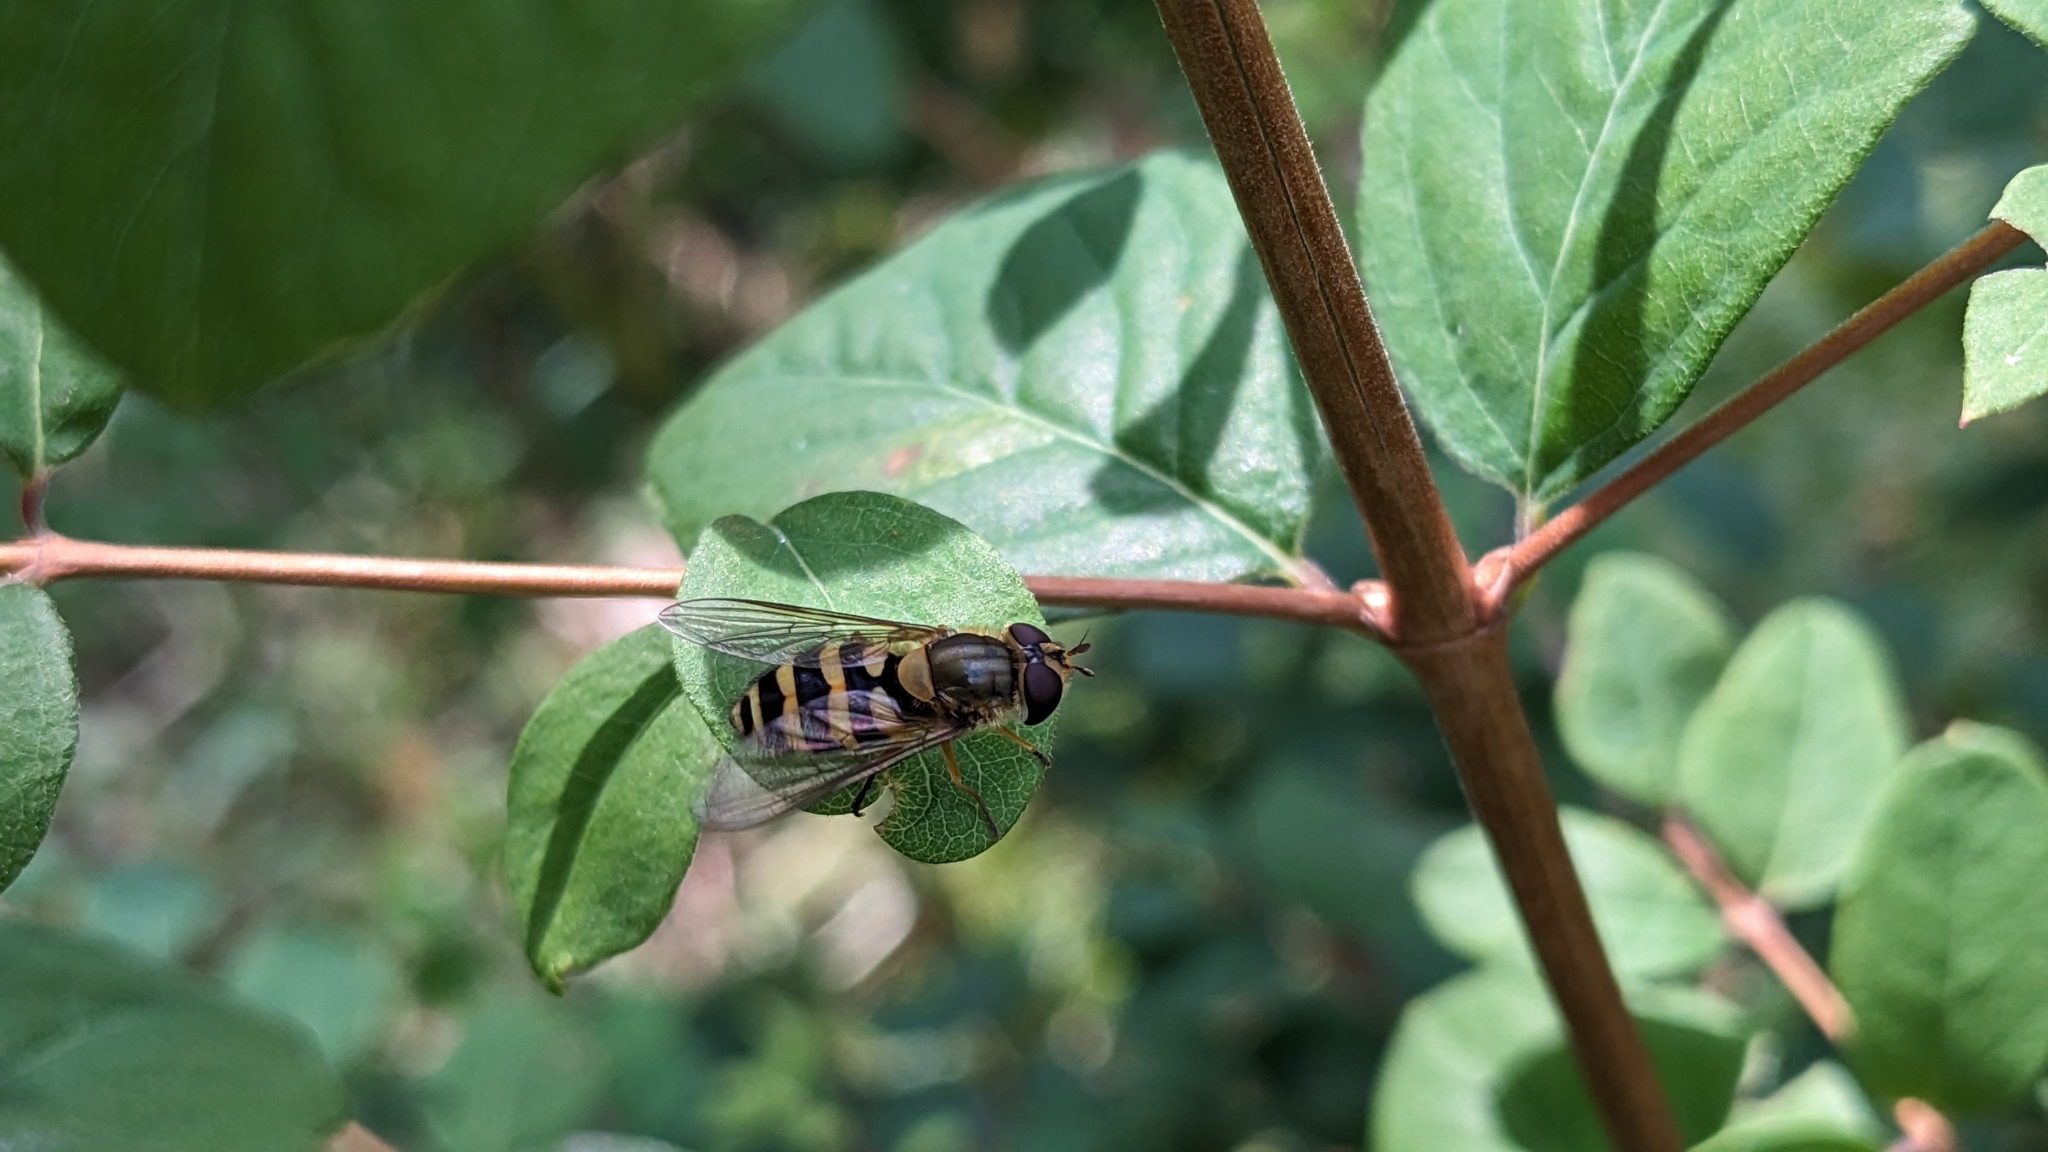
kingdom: Animalia
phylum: Arthropoda
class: Insecta
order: Diptera
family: Syrphidae
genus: Syrphus
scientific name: Syrphus ribesii
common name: Common flower fly
